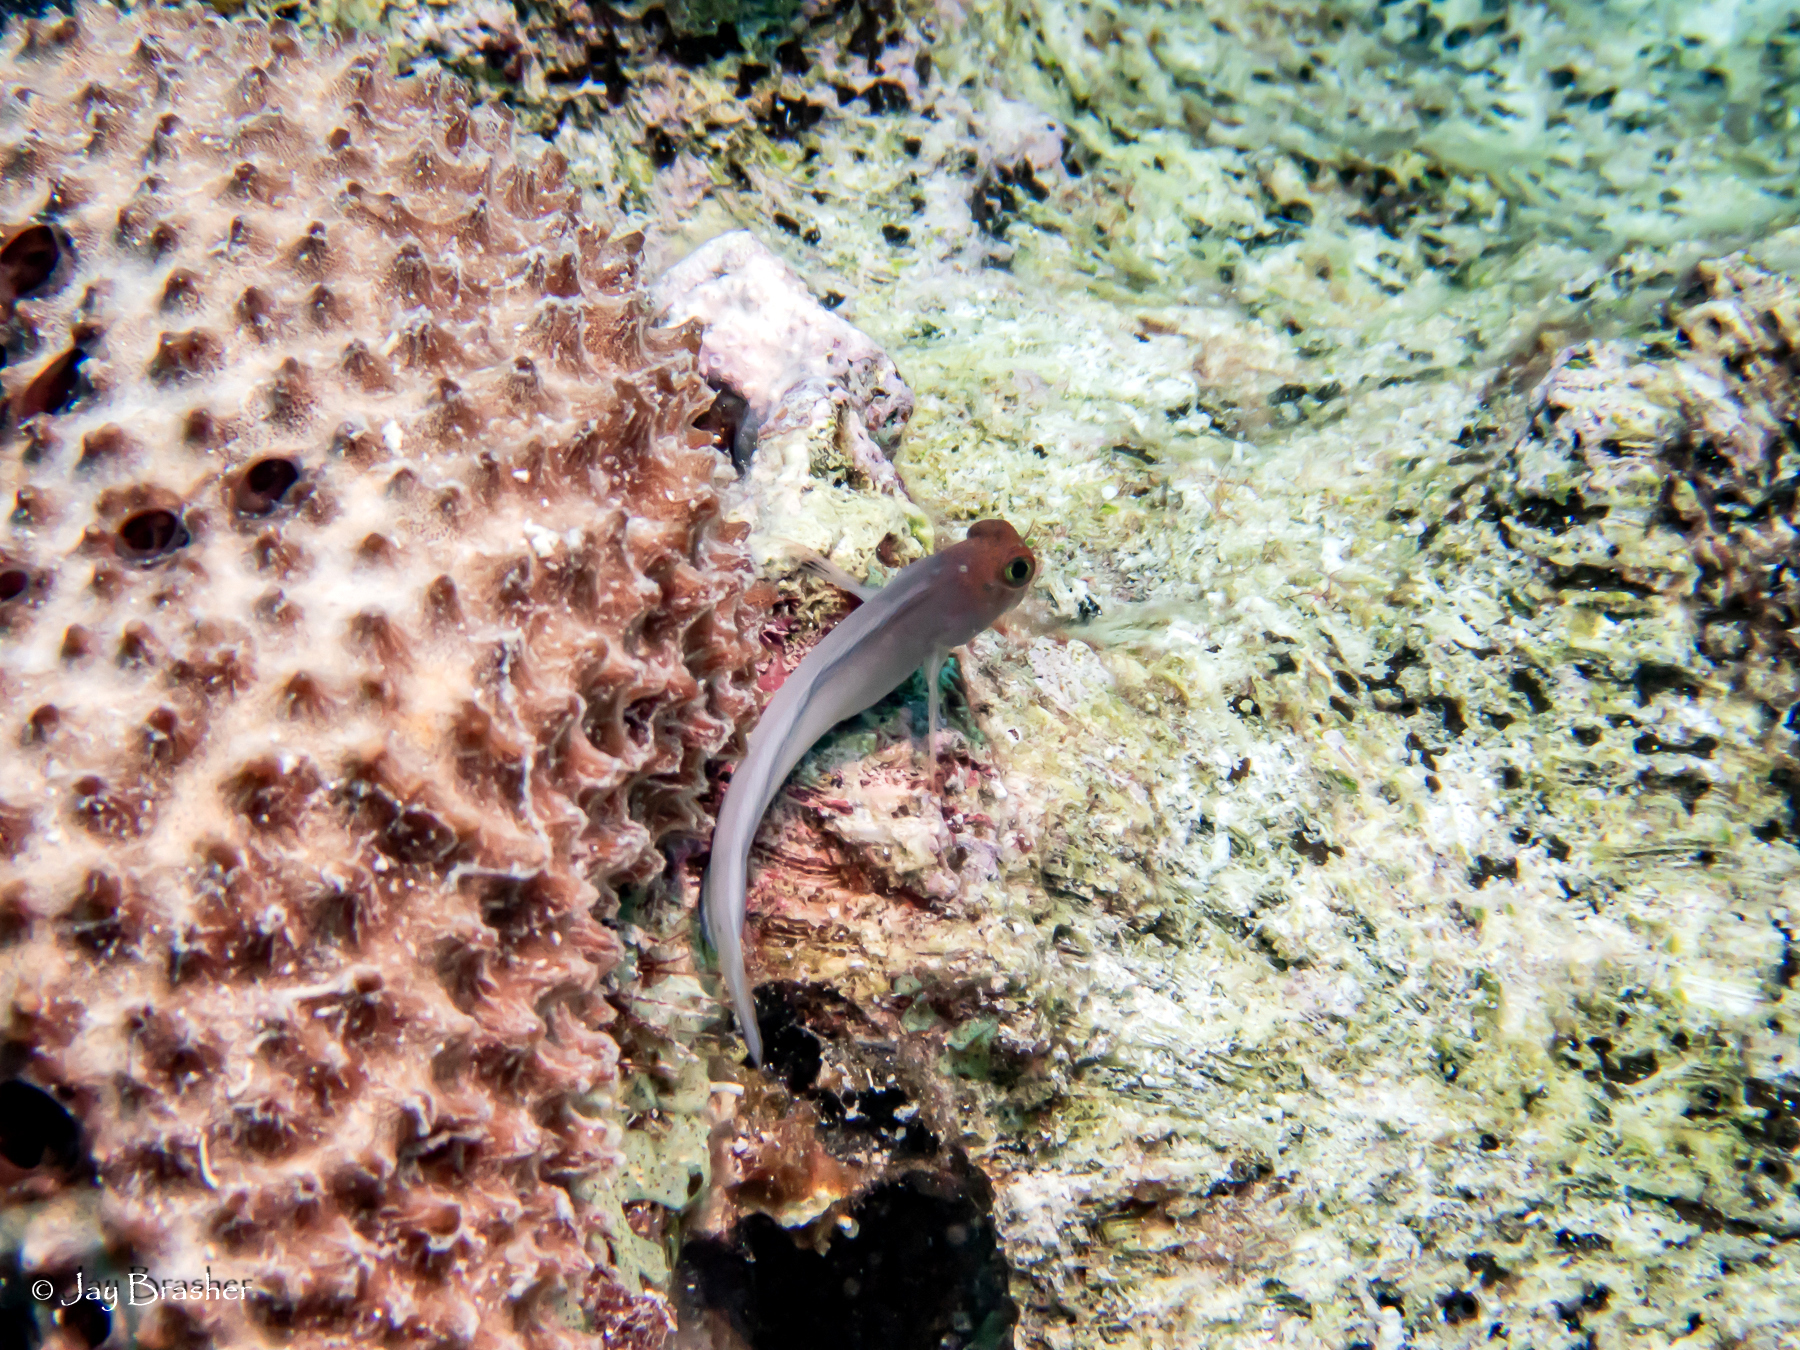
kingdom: Animalia
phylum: Chordata
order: Perciformes
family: Blenniidae
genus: Ophioblennius
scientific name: Ophioblennius macclurei
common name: Redlip blenny
